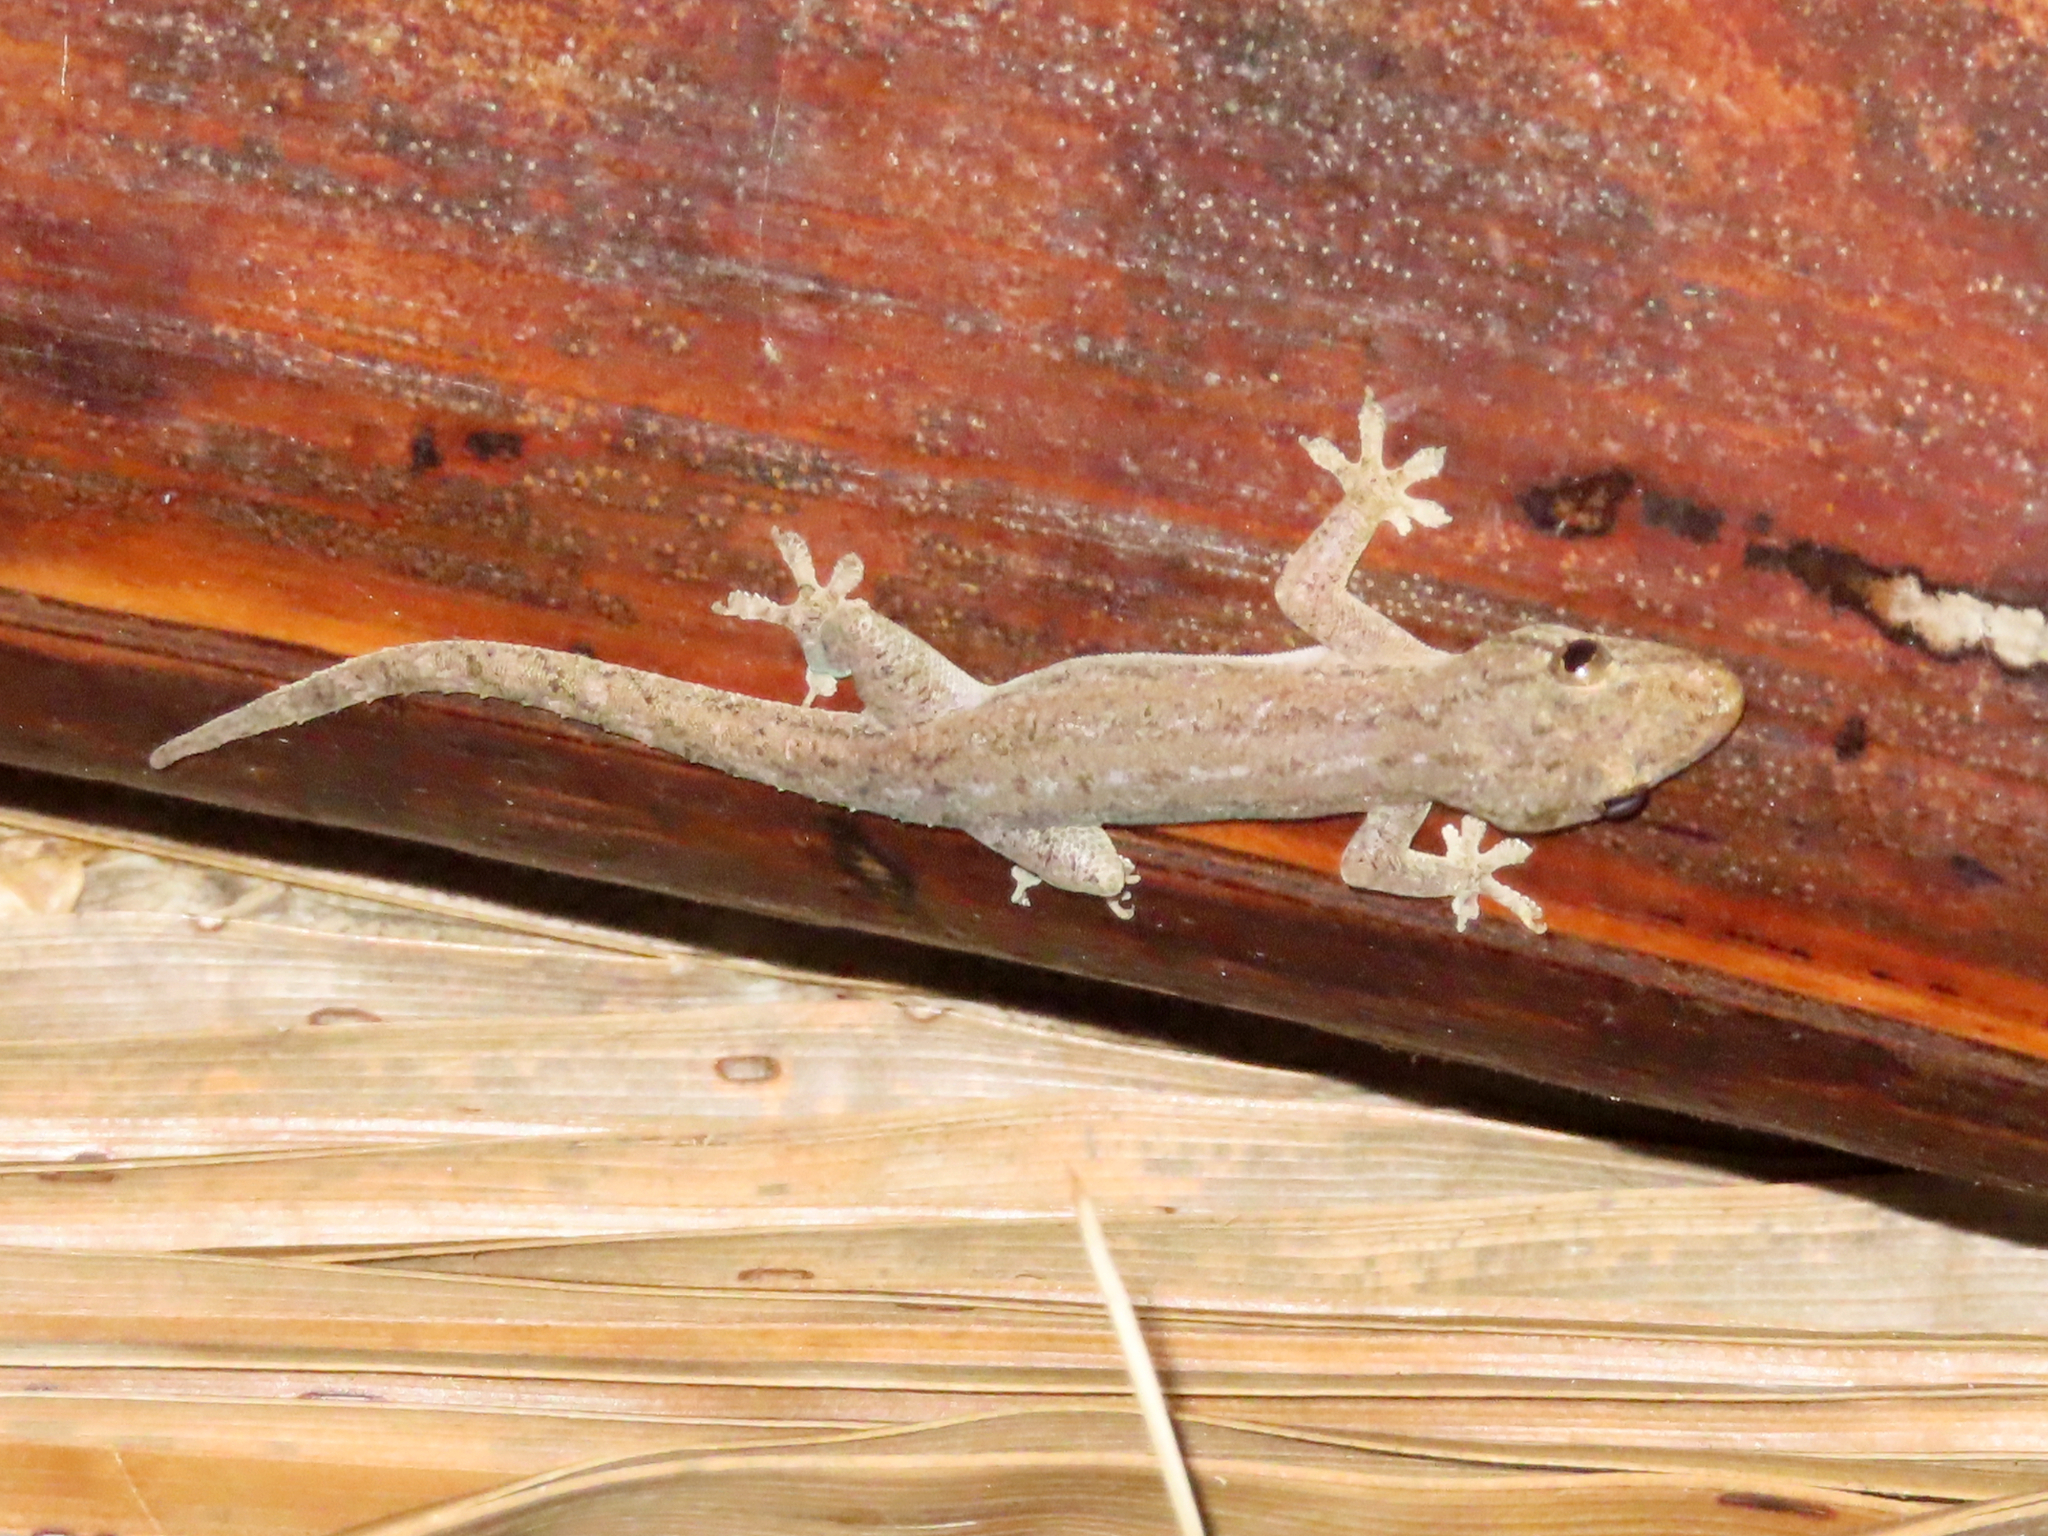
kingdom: Animalia
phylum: Chordata
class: Squamata
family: Gekkonidae
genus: Hemidactylus
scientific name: Hemidactylus frenatus
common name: Common house gecko
